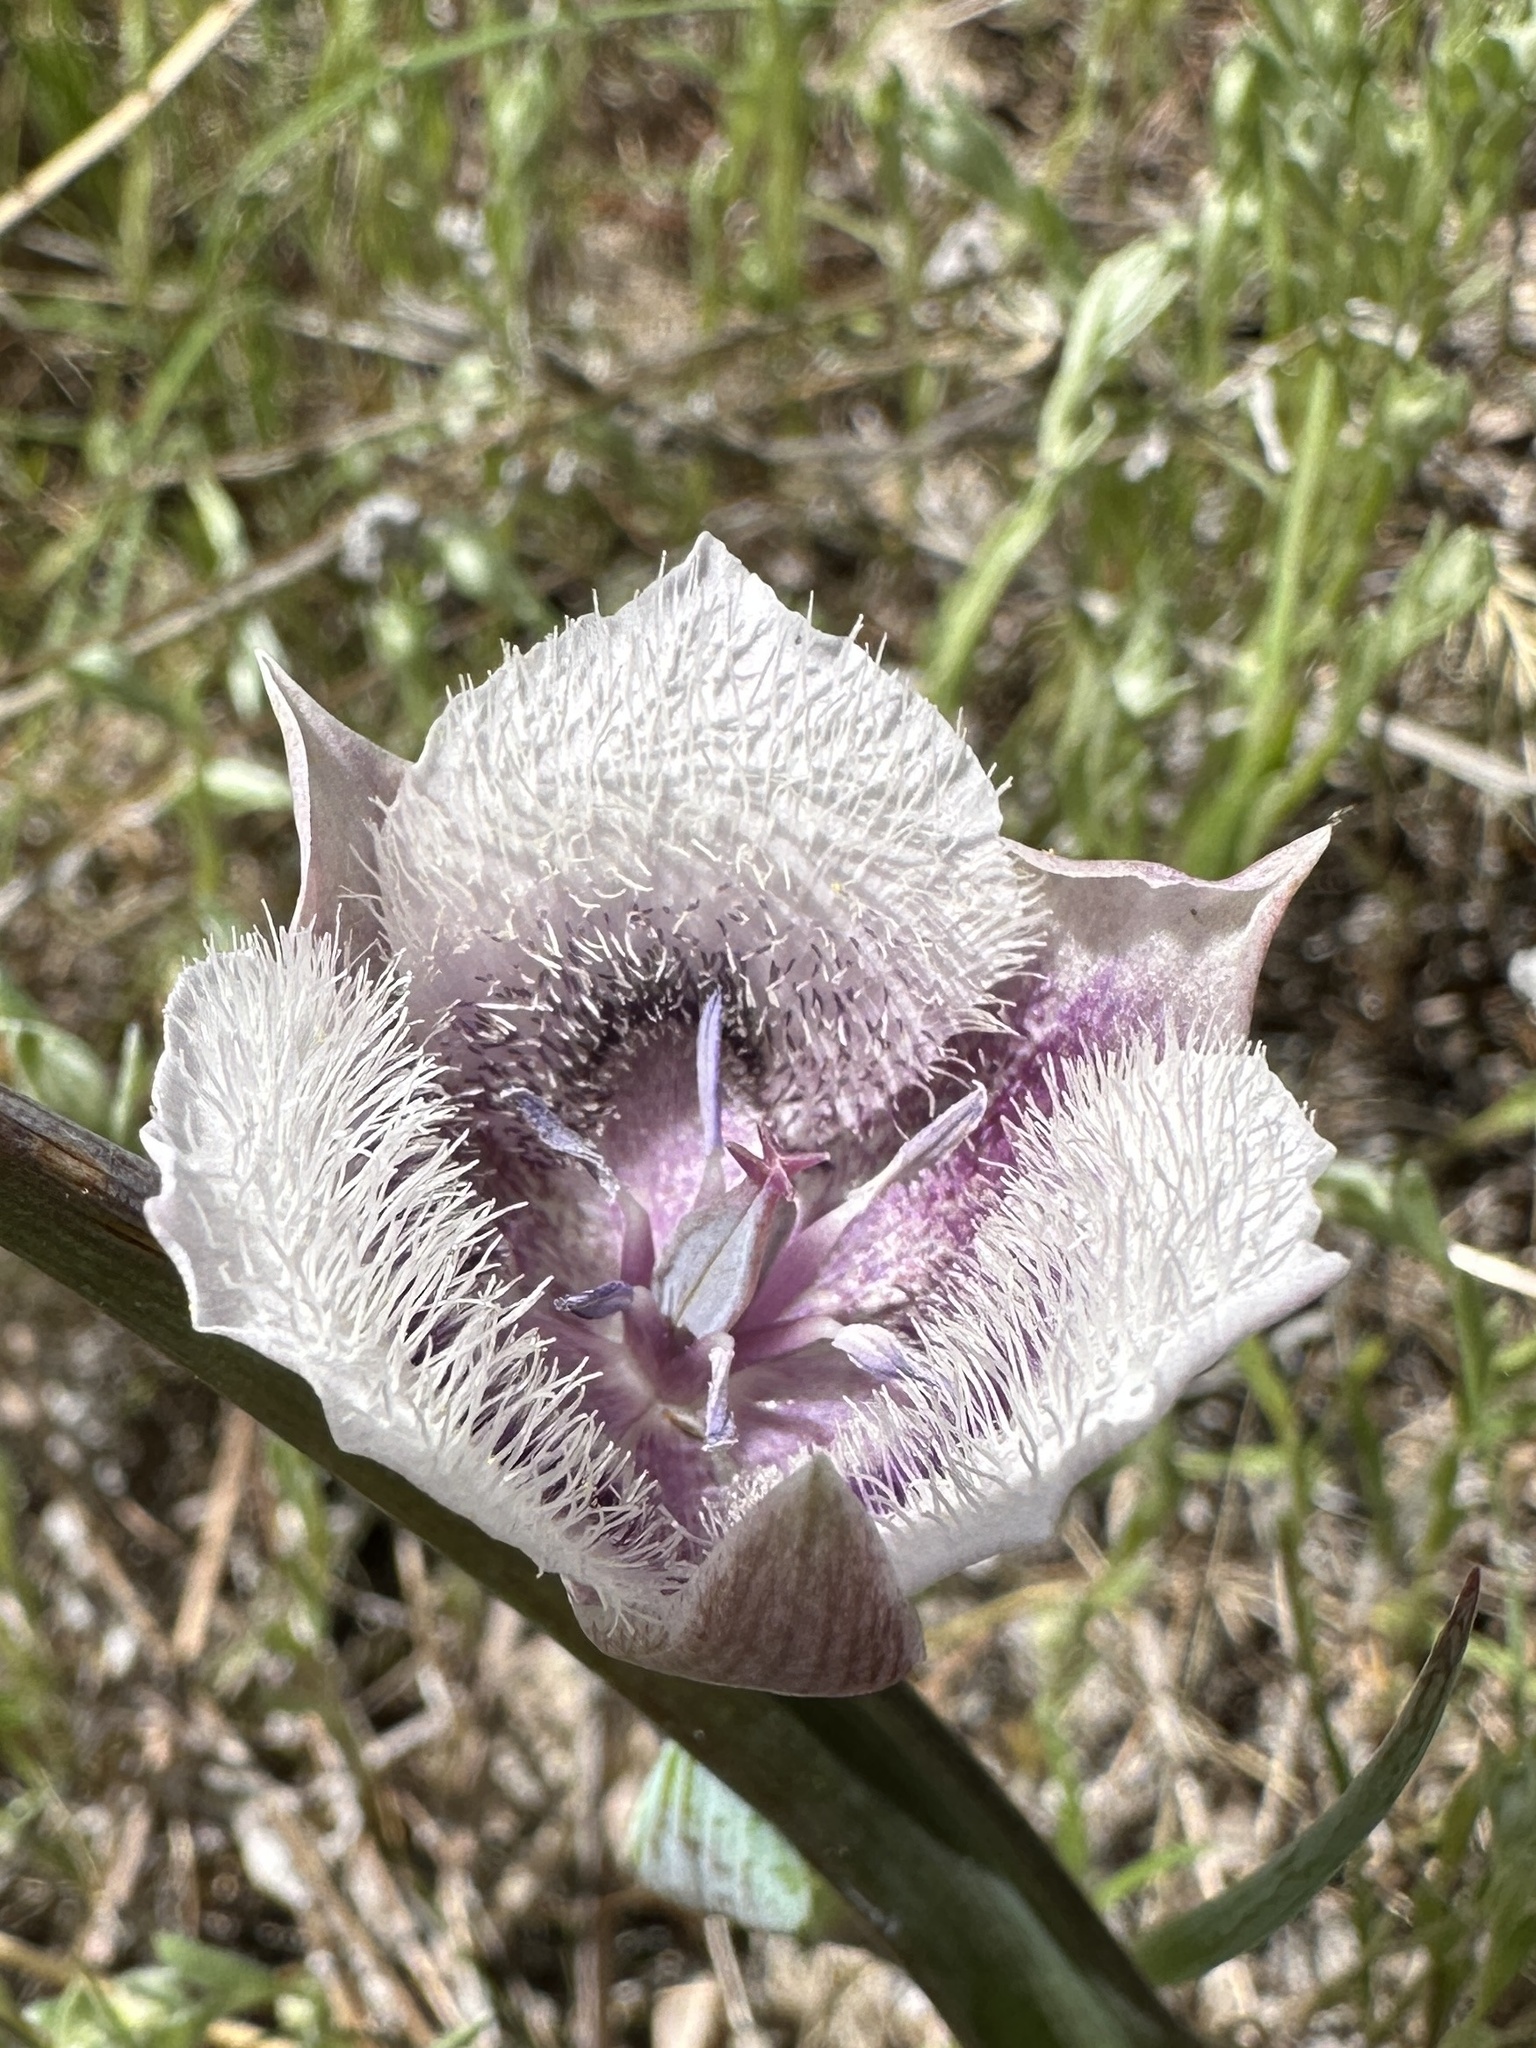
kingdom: Plantae
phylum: Tracheophyta
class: Liliopsida
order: Liliales
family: Liliaceae
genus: Calochortus
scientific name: Calochortus tolmiei
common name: Pussy-ears
